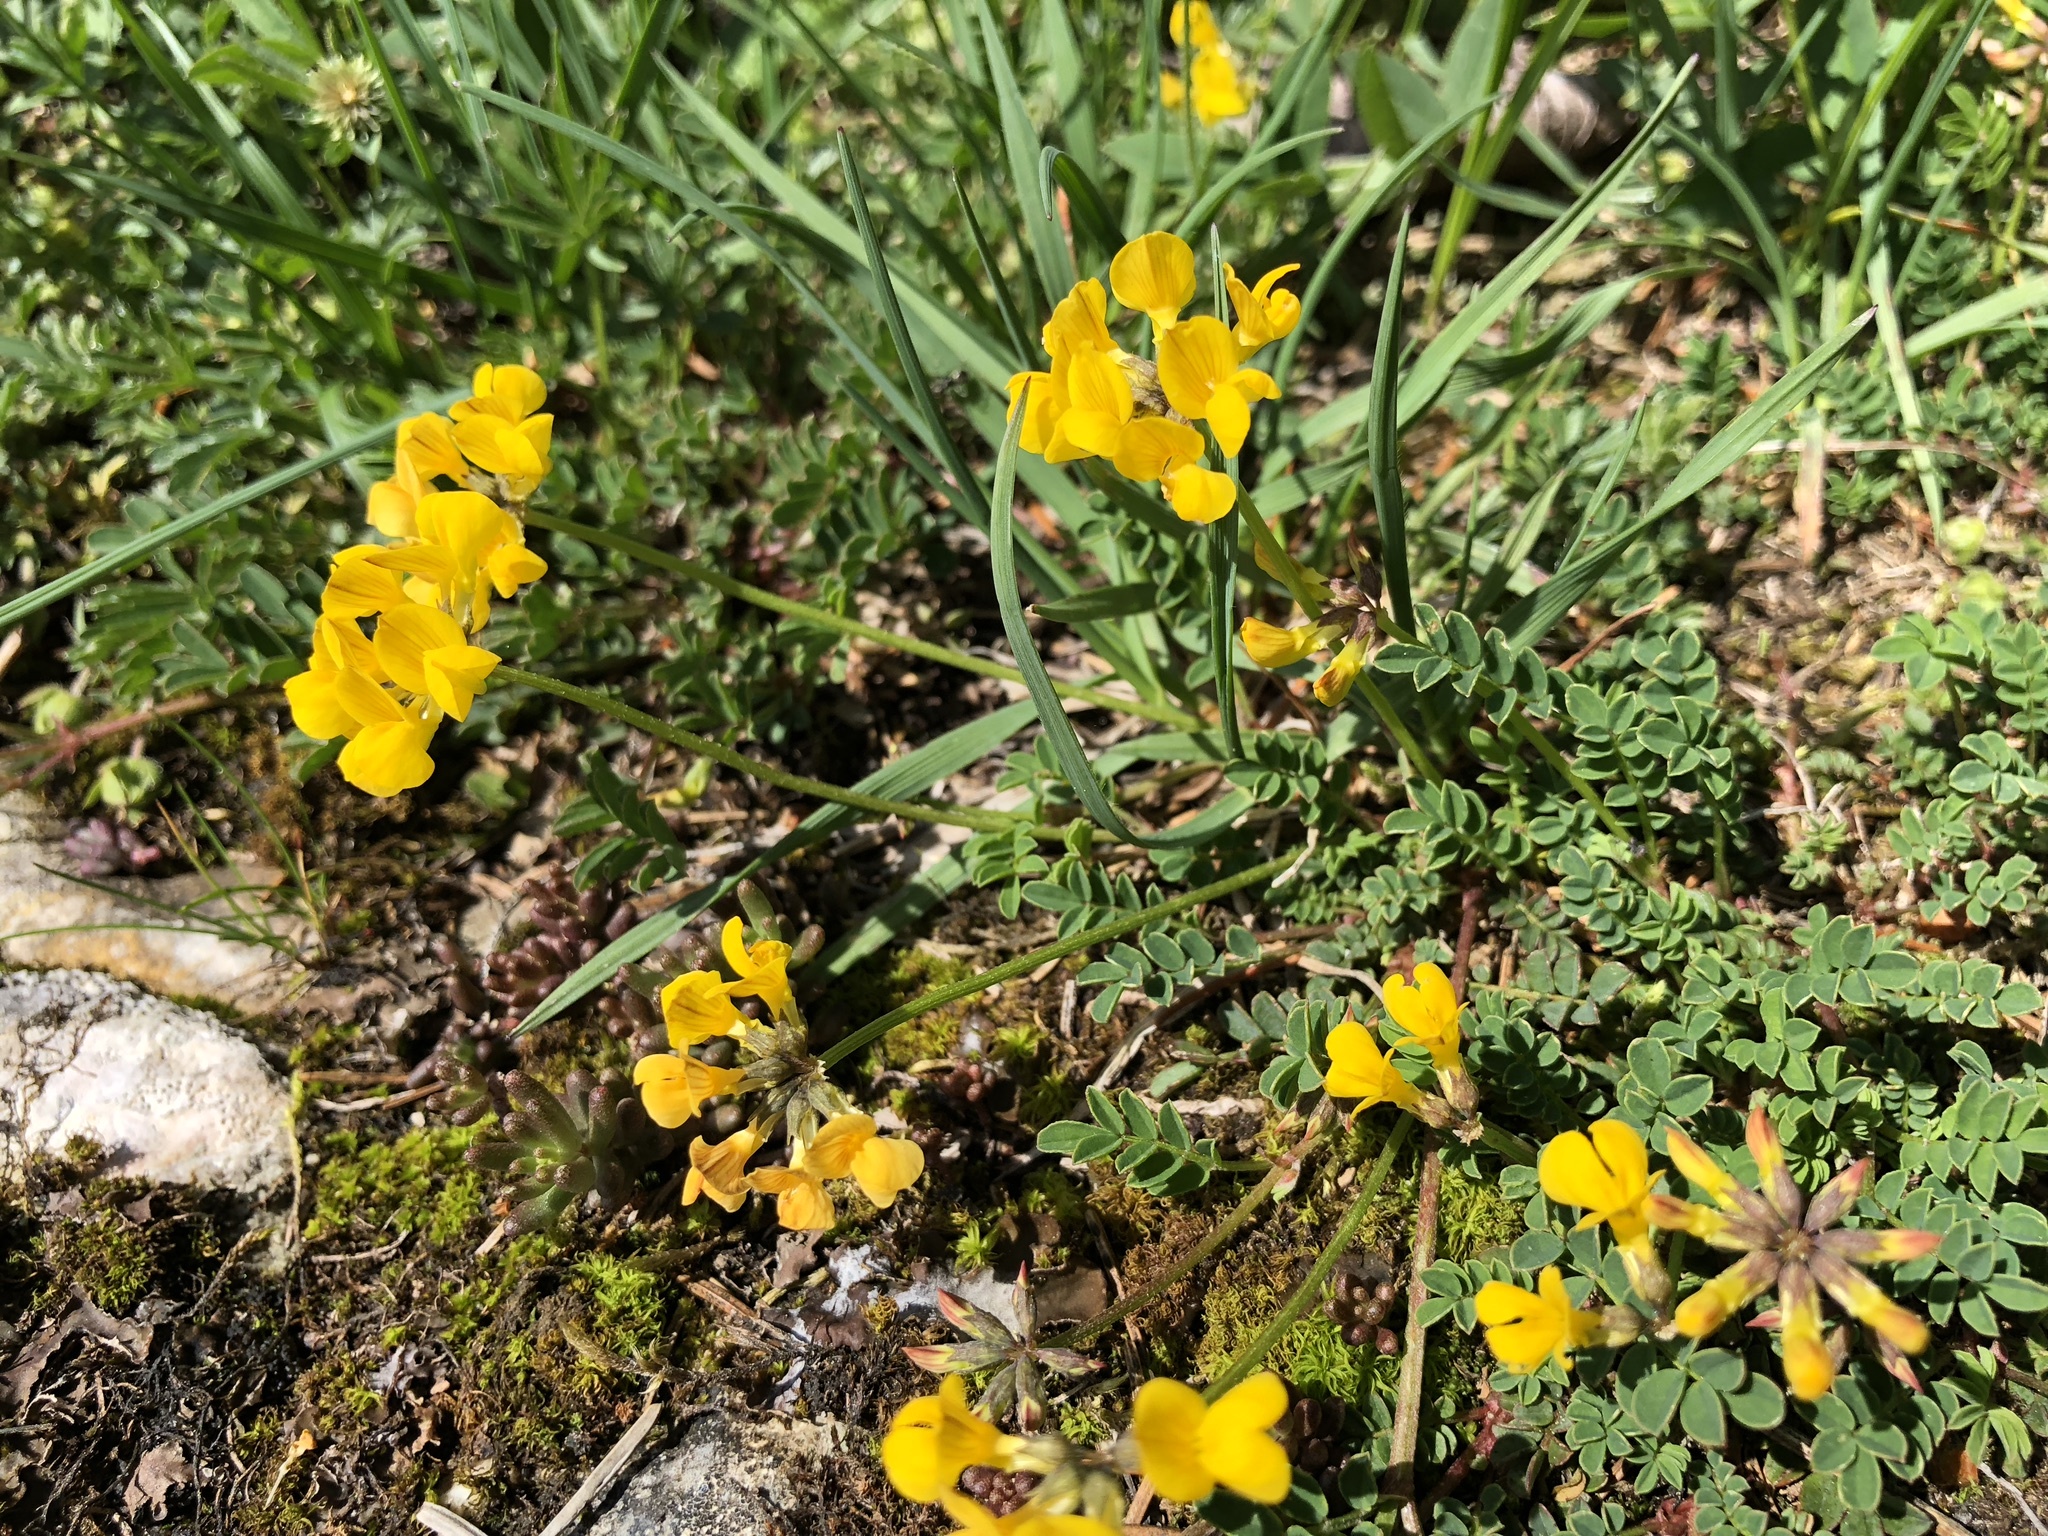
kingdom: Plantae
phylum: Tracheophyta
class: Magnoliopsida
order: Fabales
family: Fabaceae
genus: Hippocrepis
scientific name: Hippocrepis comosa
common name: Horseshoe vetch
